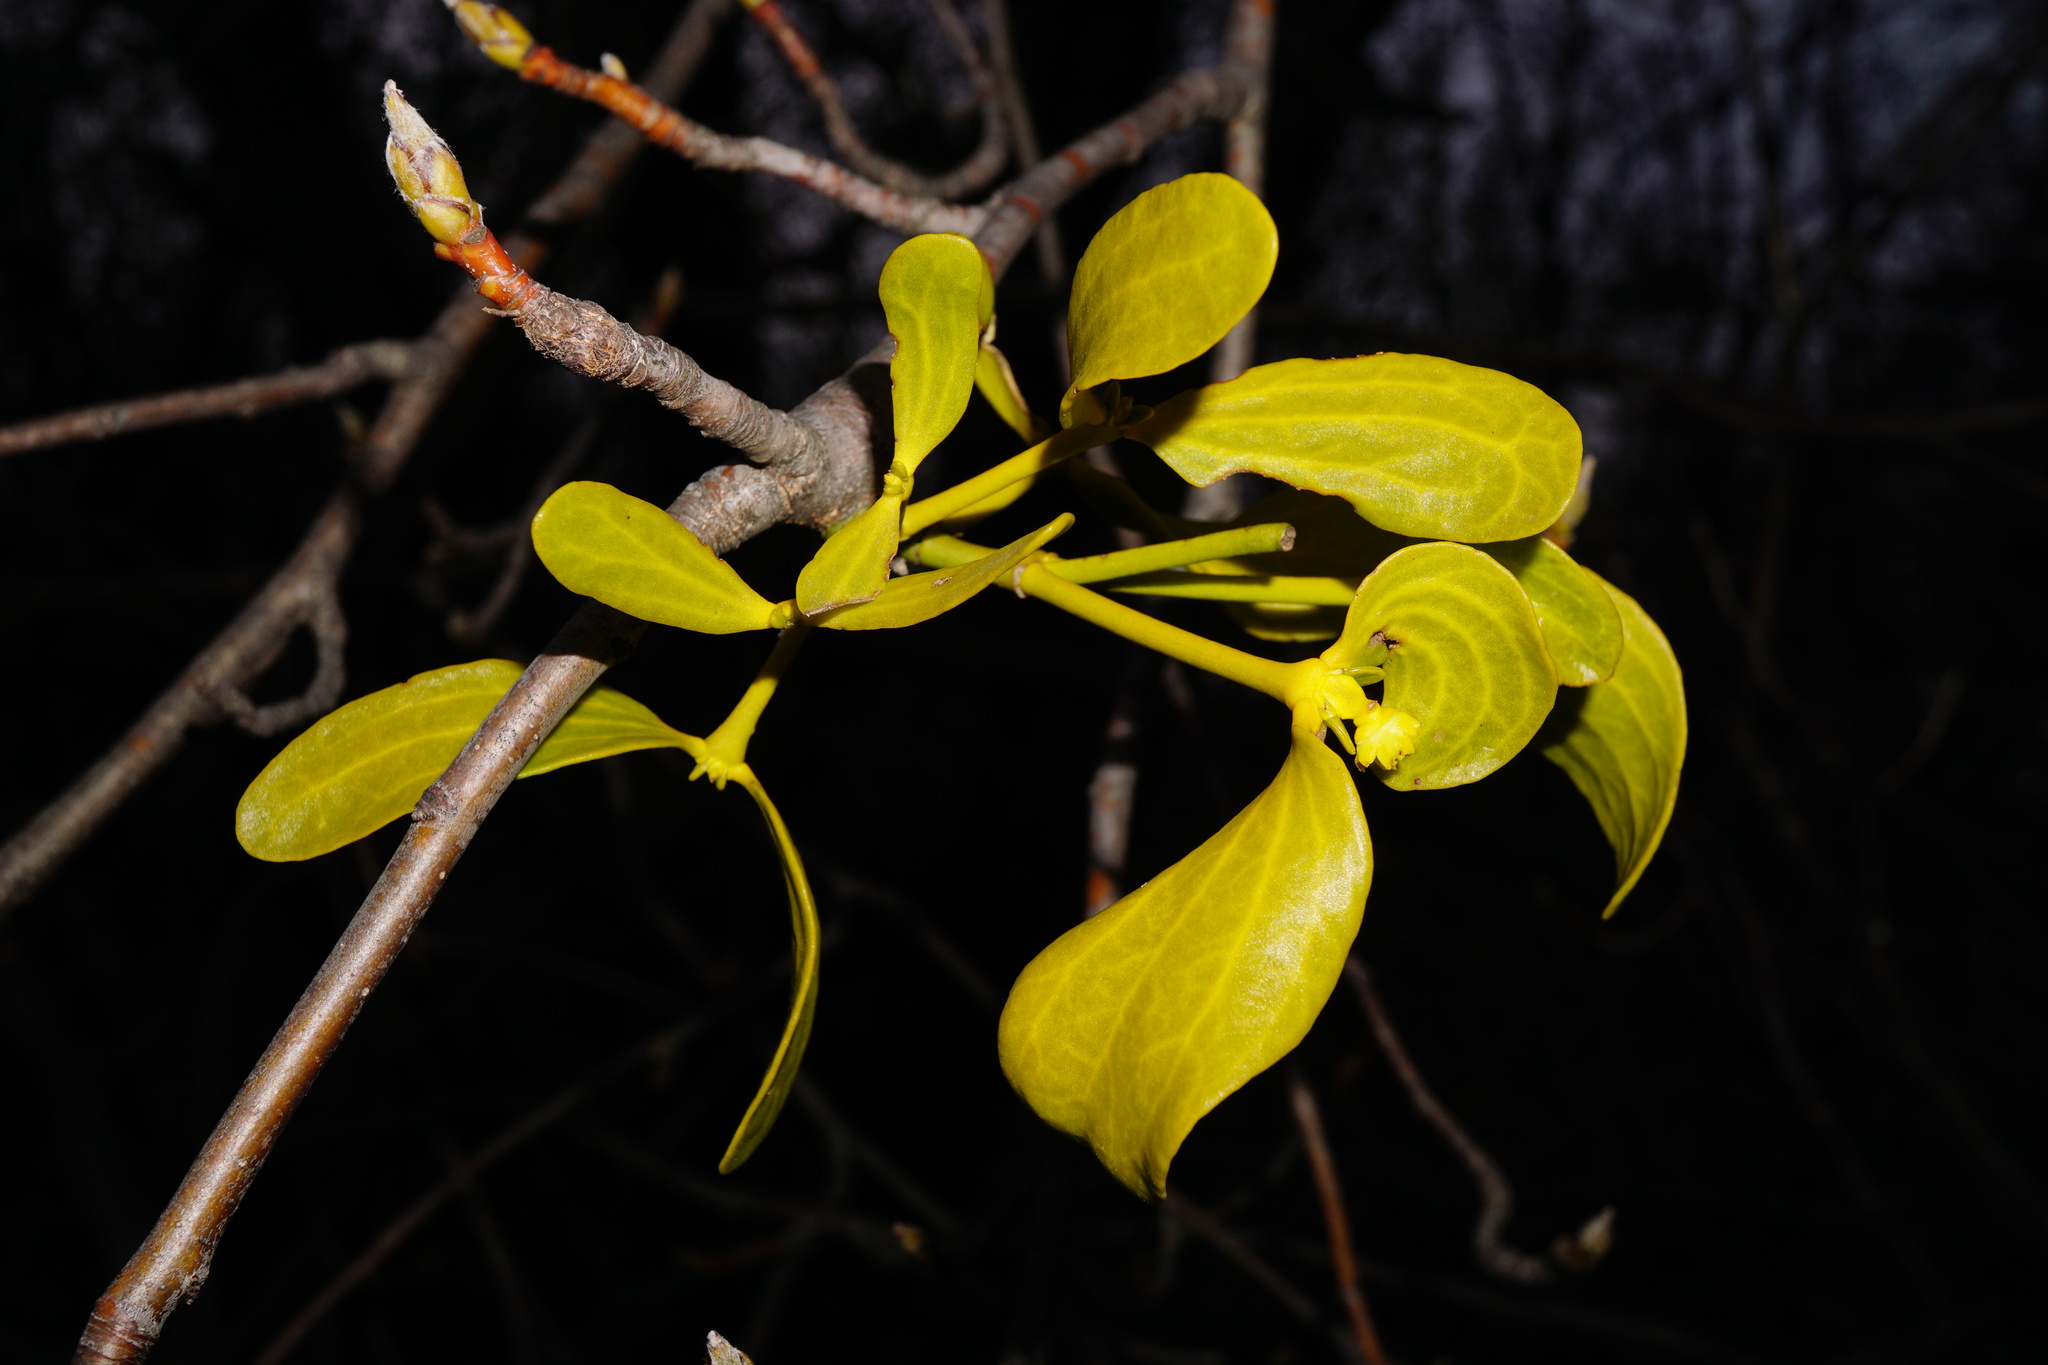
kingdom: Plantae
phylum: Tracheophyta
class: Magnoliopsida
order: Santalales
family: Viscaceae
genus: Viscum
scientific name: Viscum album
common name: Mistletoe
